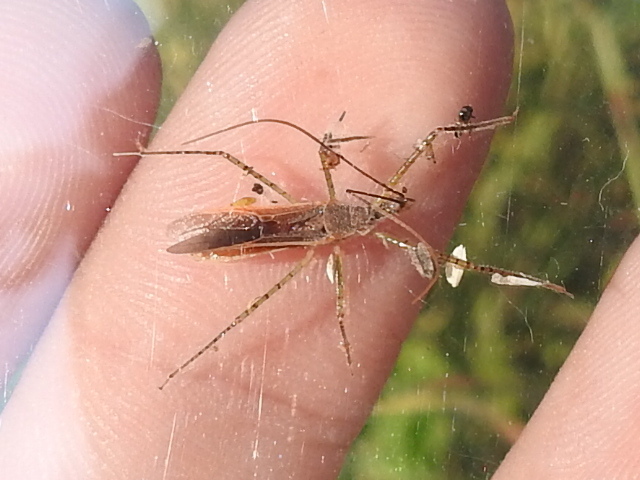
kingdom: Animalia
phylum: Arthropoda
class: Insecta
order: Hemiptera
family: Reduviidae
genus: Zelus
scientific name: Zelus cervicalis
